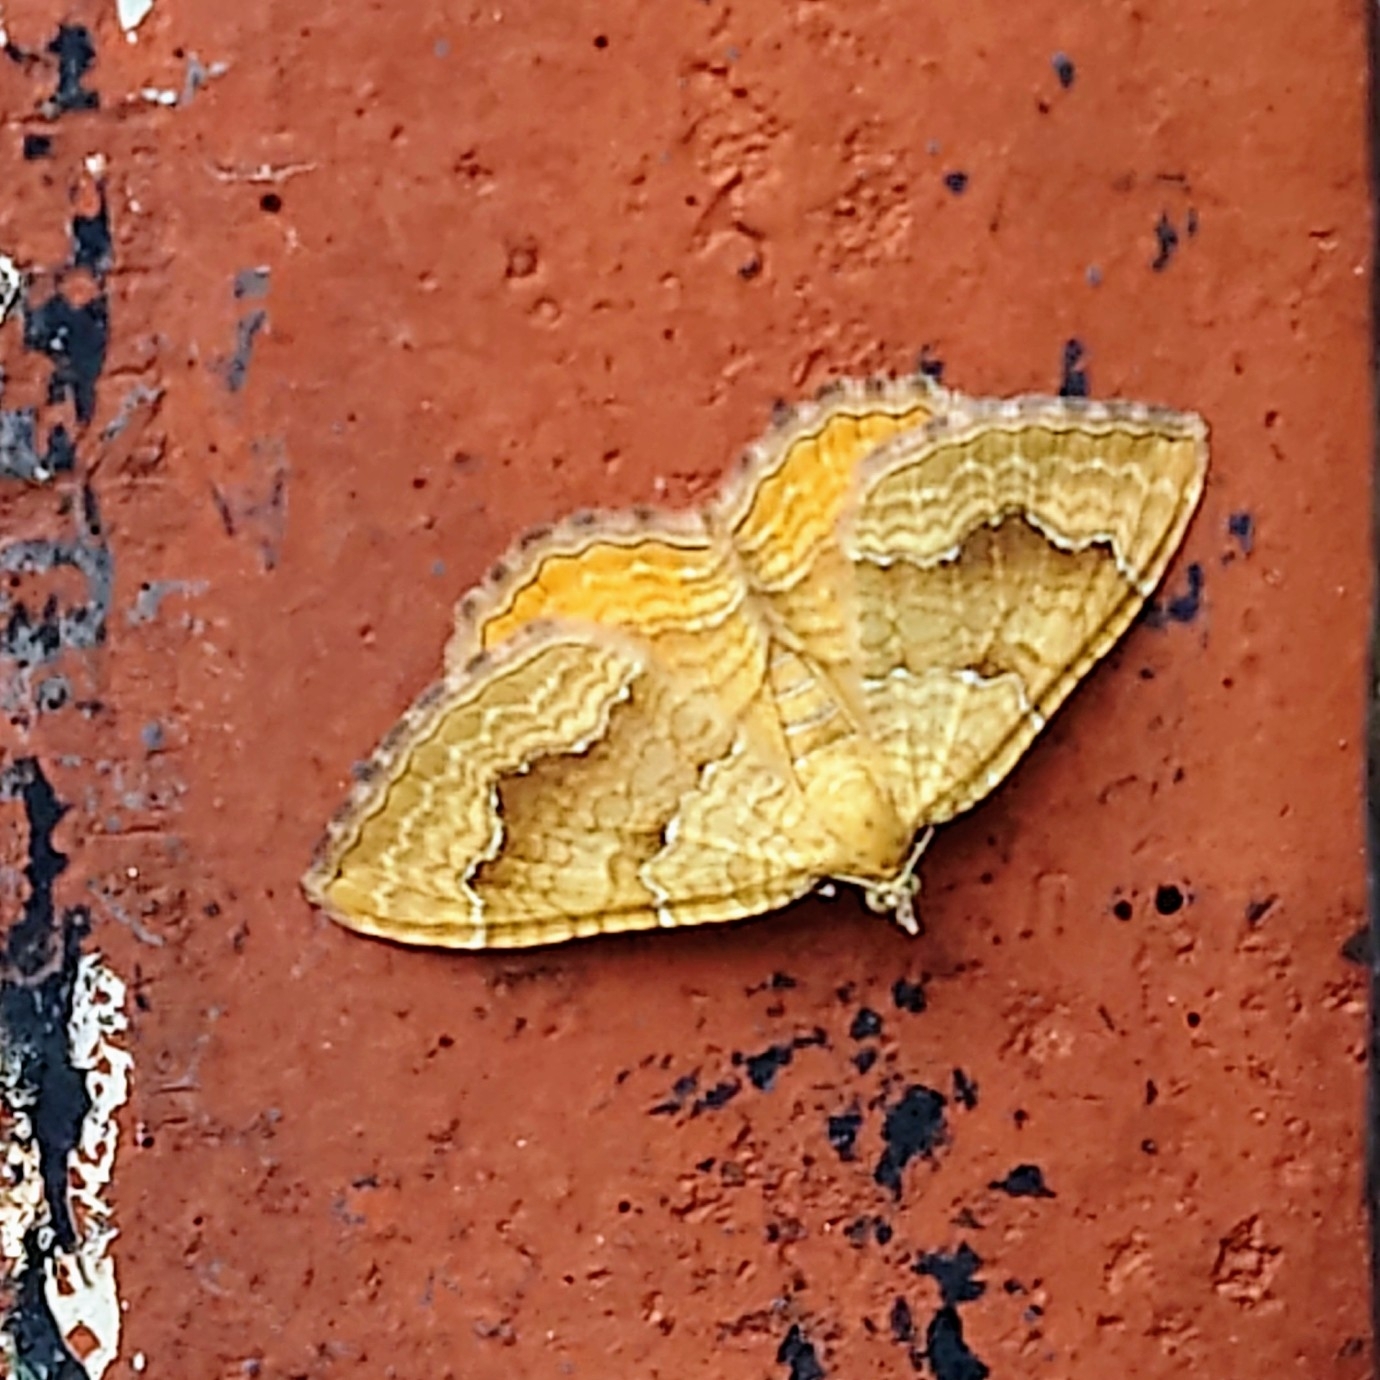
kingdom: Animalia
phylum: Arthropoda
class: Insecta
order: Lepidoptera
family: Geometridae
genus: Camptogramma
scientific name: Camptogramma bilineata
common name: Yellow shell
